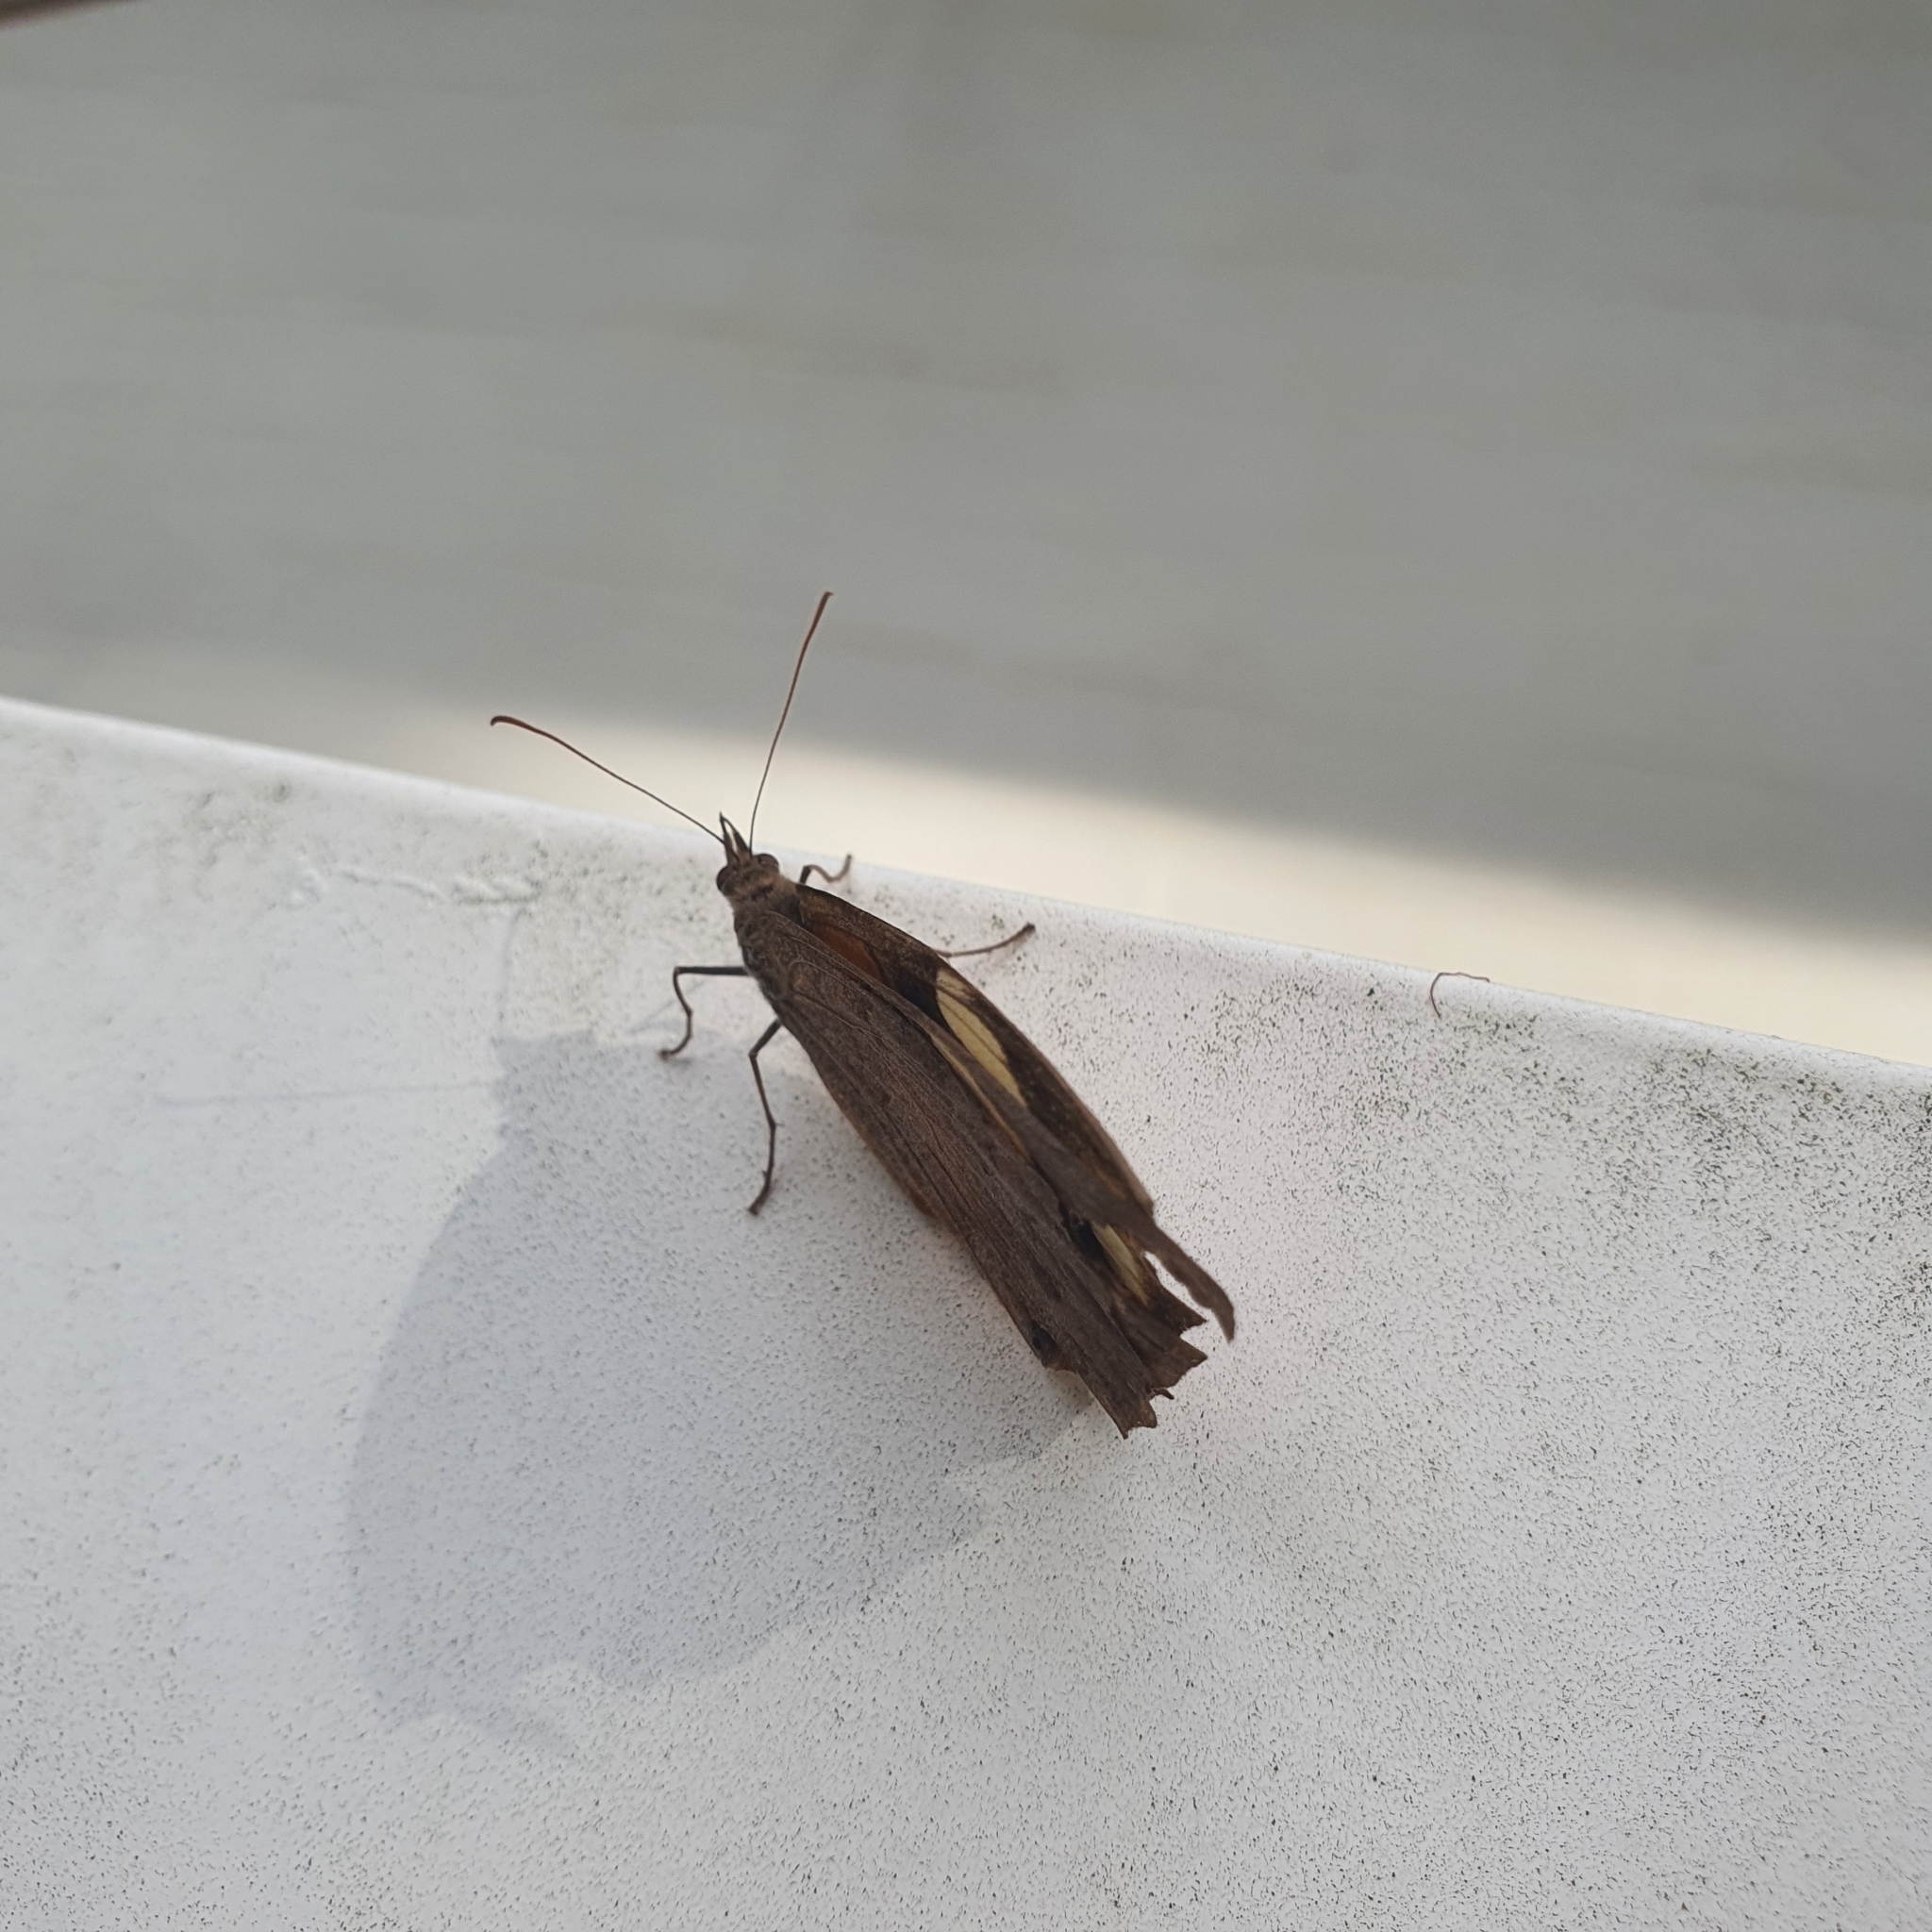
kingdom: Animalia
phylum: Arthropoda
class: Insecta
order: Lepidoptera
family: Nymphalidae
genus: Heteronympha
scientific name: Heteronympha merope
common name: Common brown
